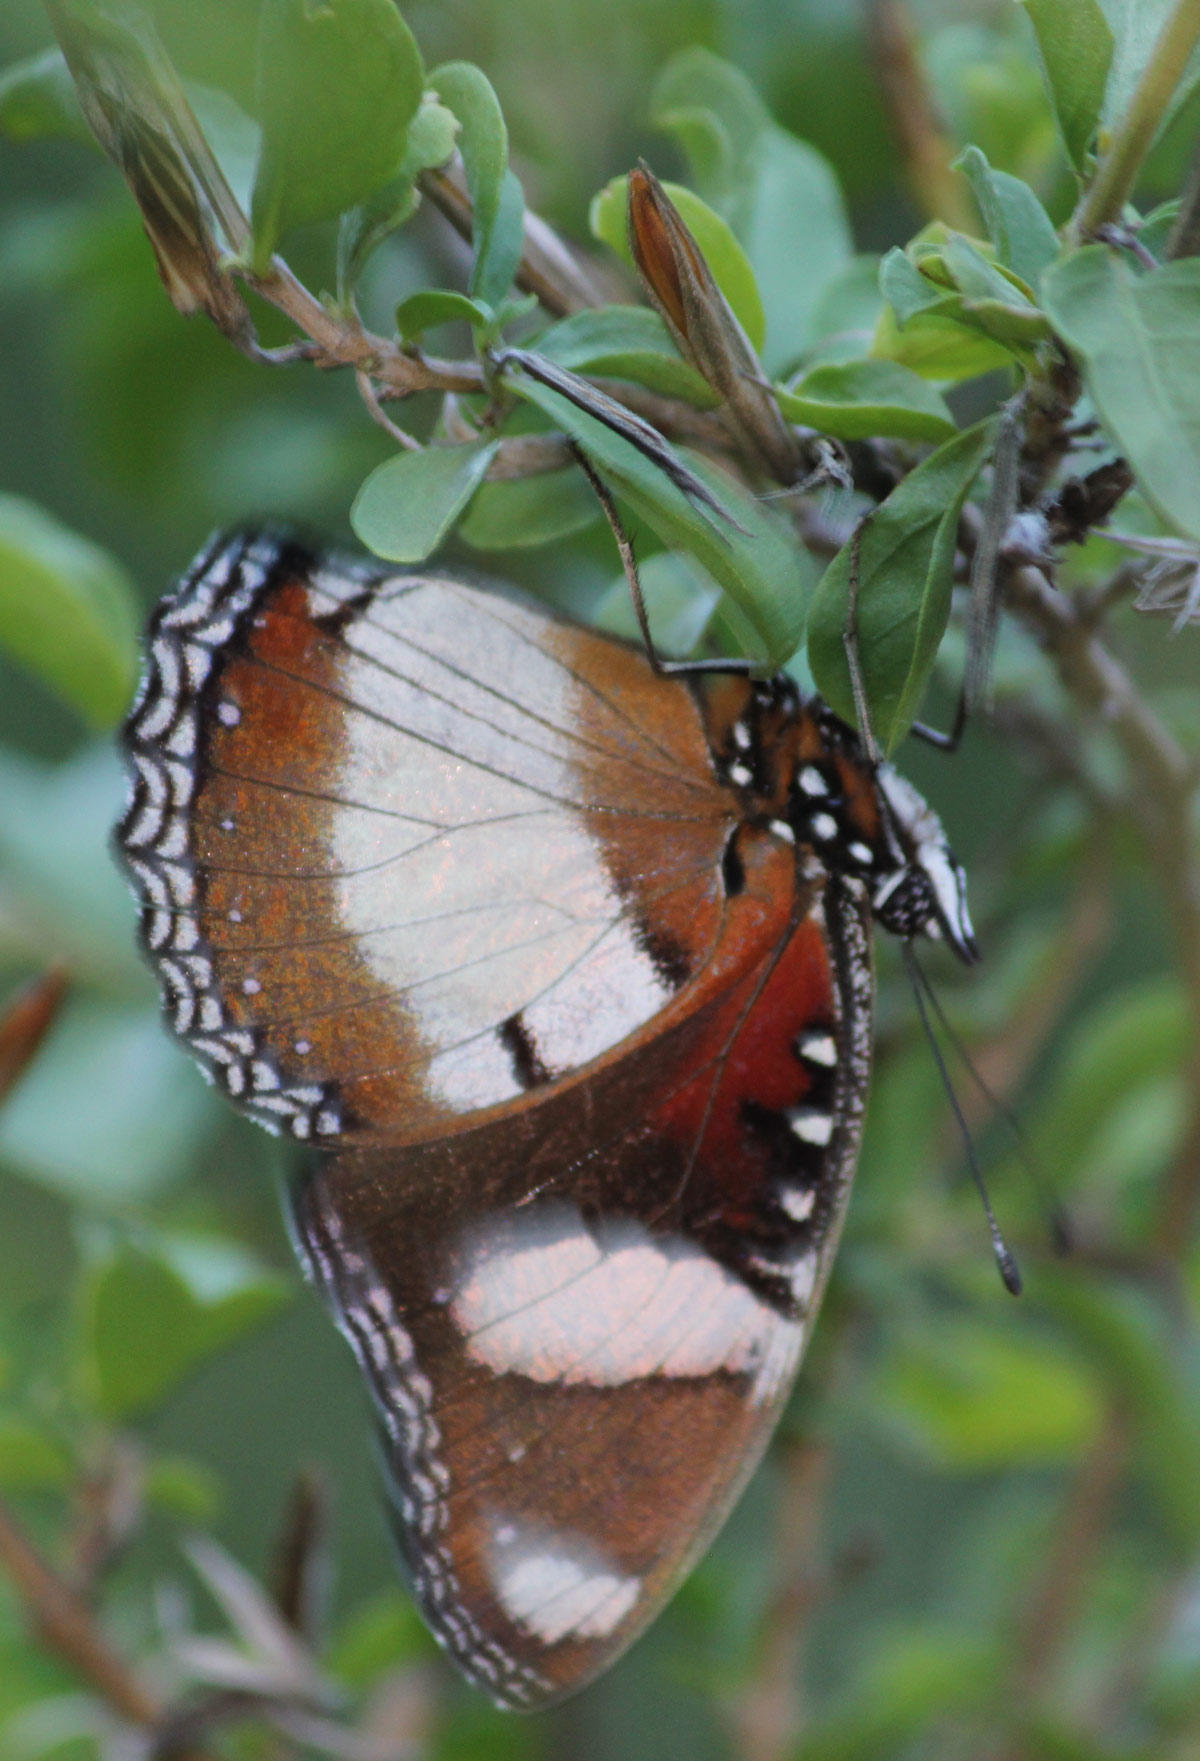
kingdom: Animalia
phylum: Arthropoda
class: Insecta
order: Lepidoptera
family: Nymphalidae
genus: Hypolimnas
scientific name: Hypolimnas misippus
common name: False plain tiger
